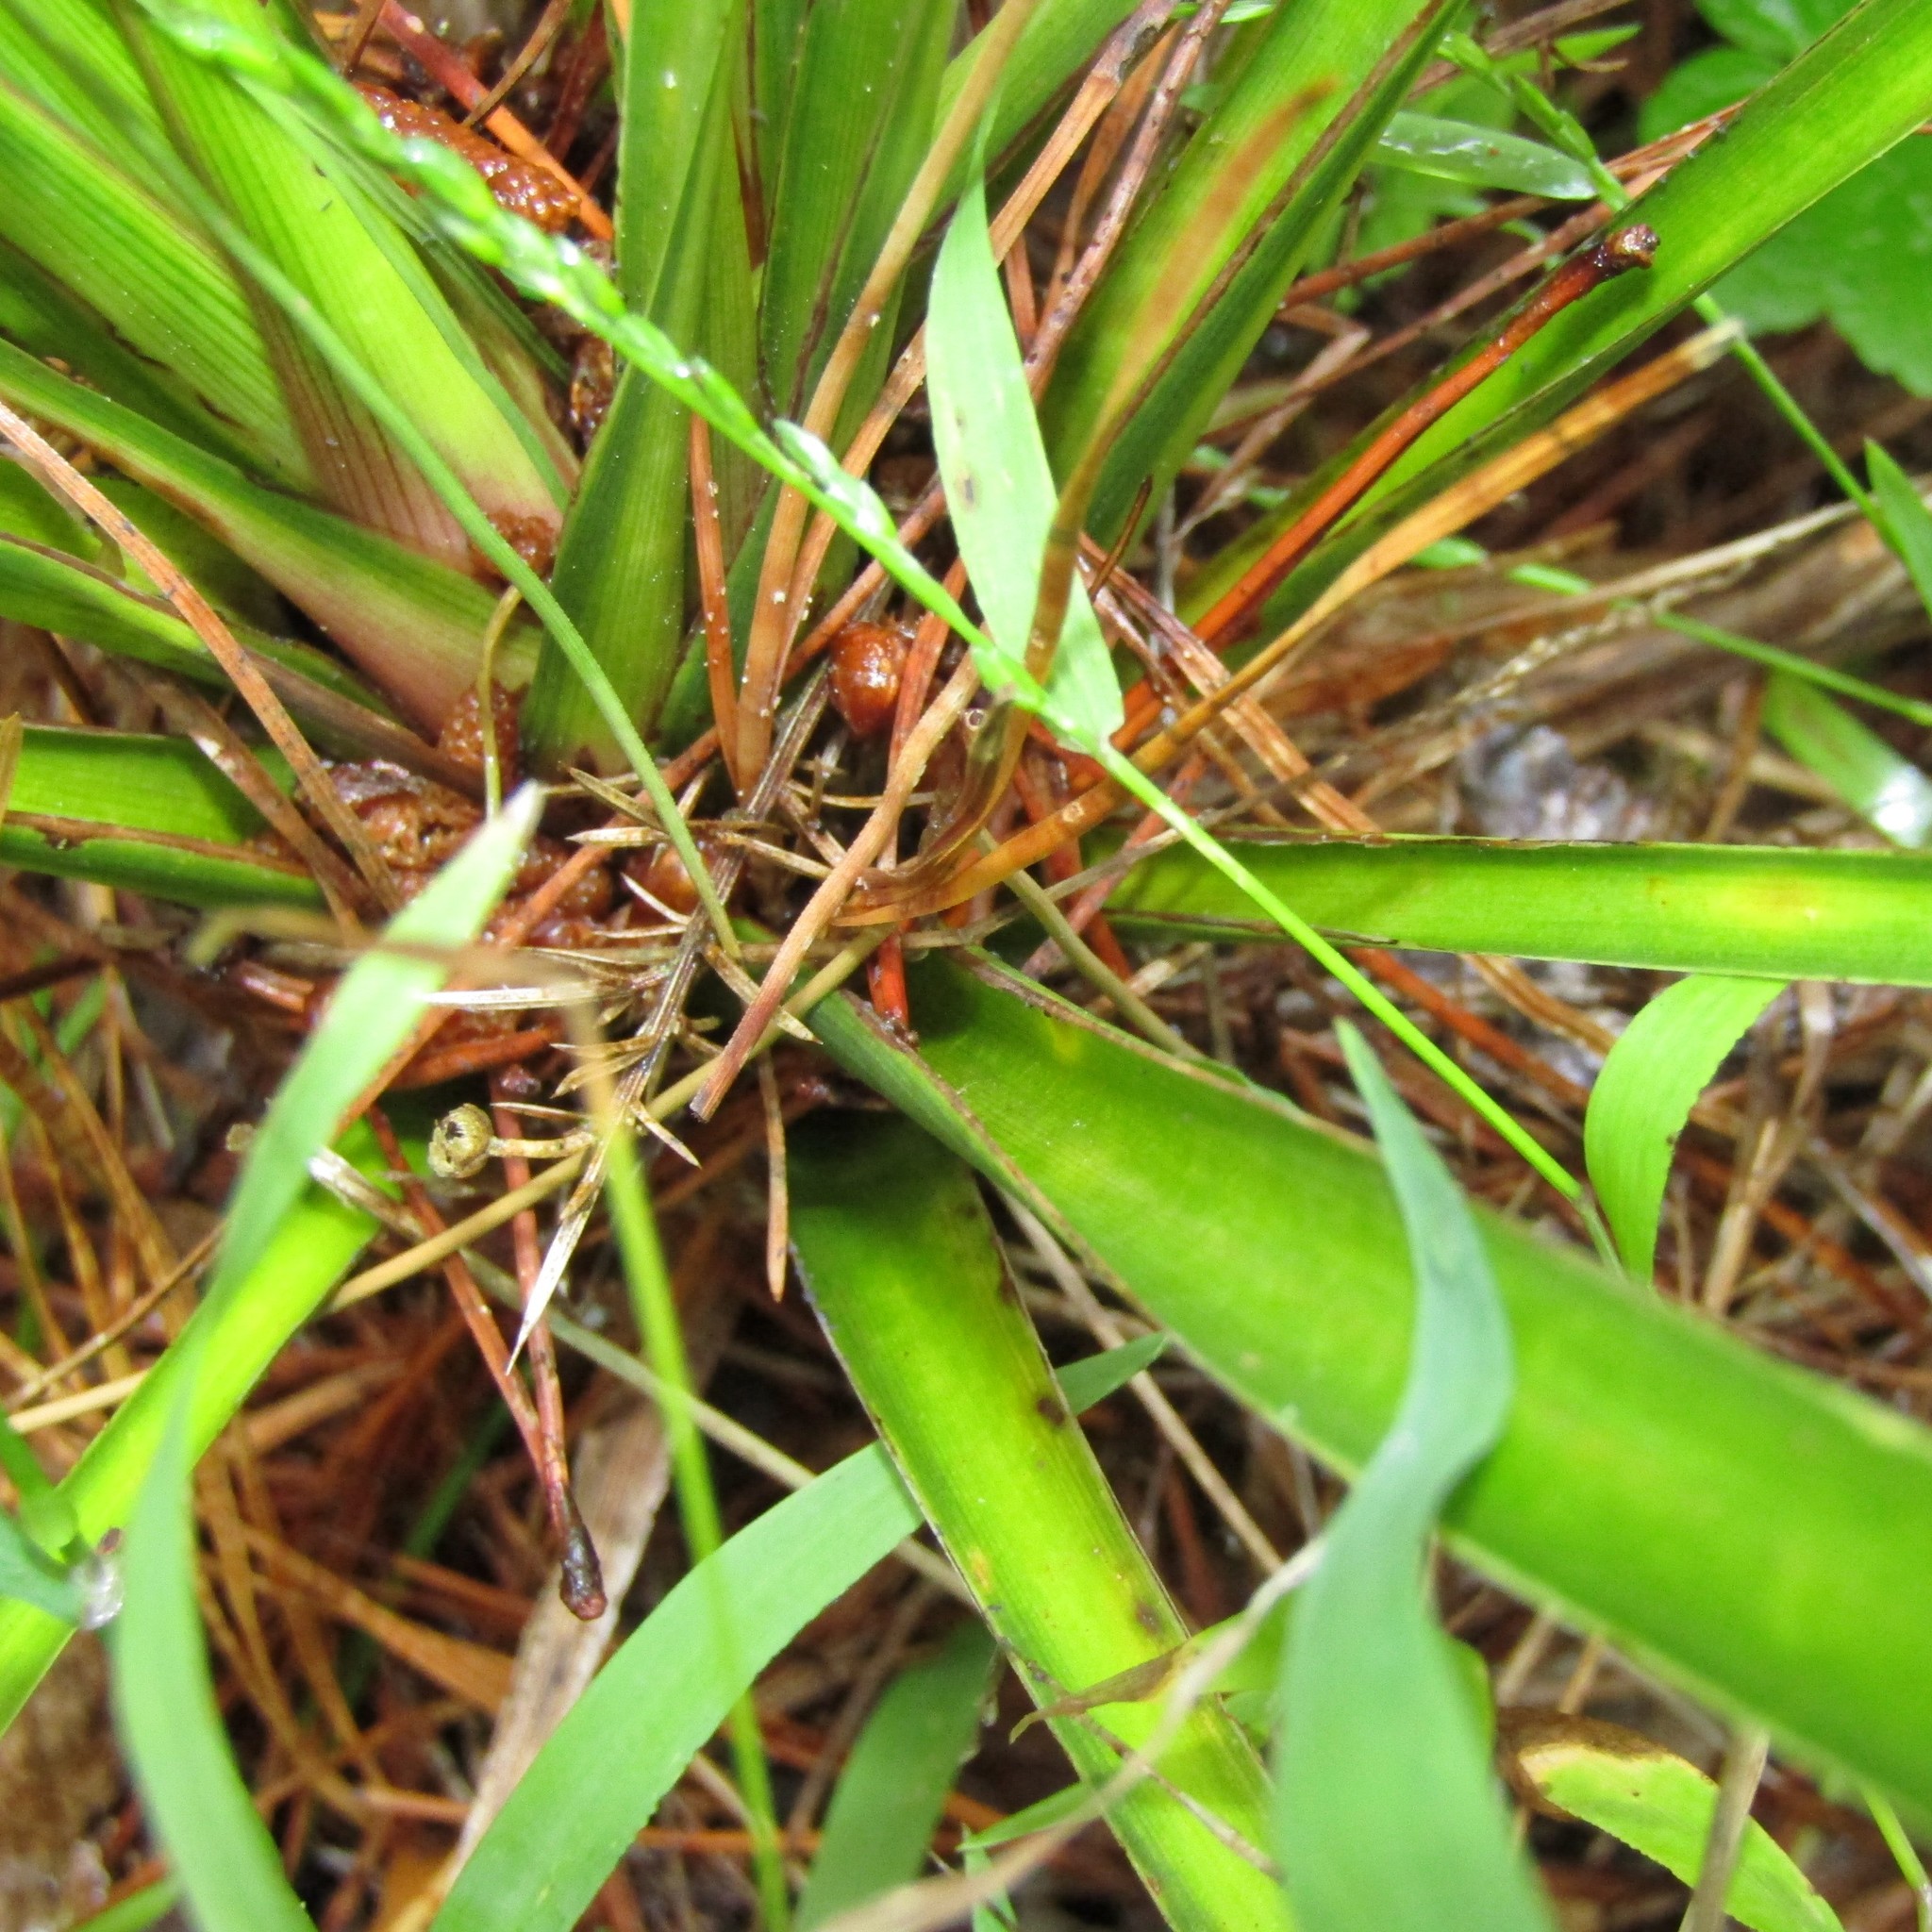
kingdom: Plantae
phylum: Tracheophyta
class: Liliopsida
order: Asparagales
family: Asparagaceae
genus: Cordyline
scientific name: Cordyline banksii
